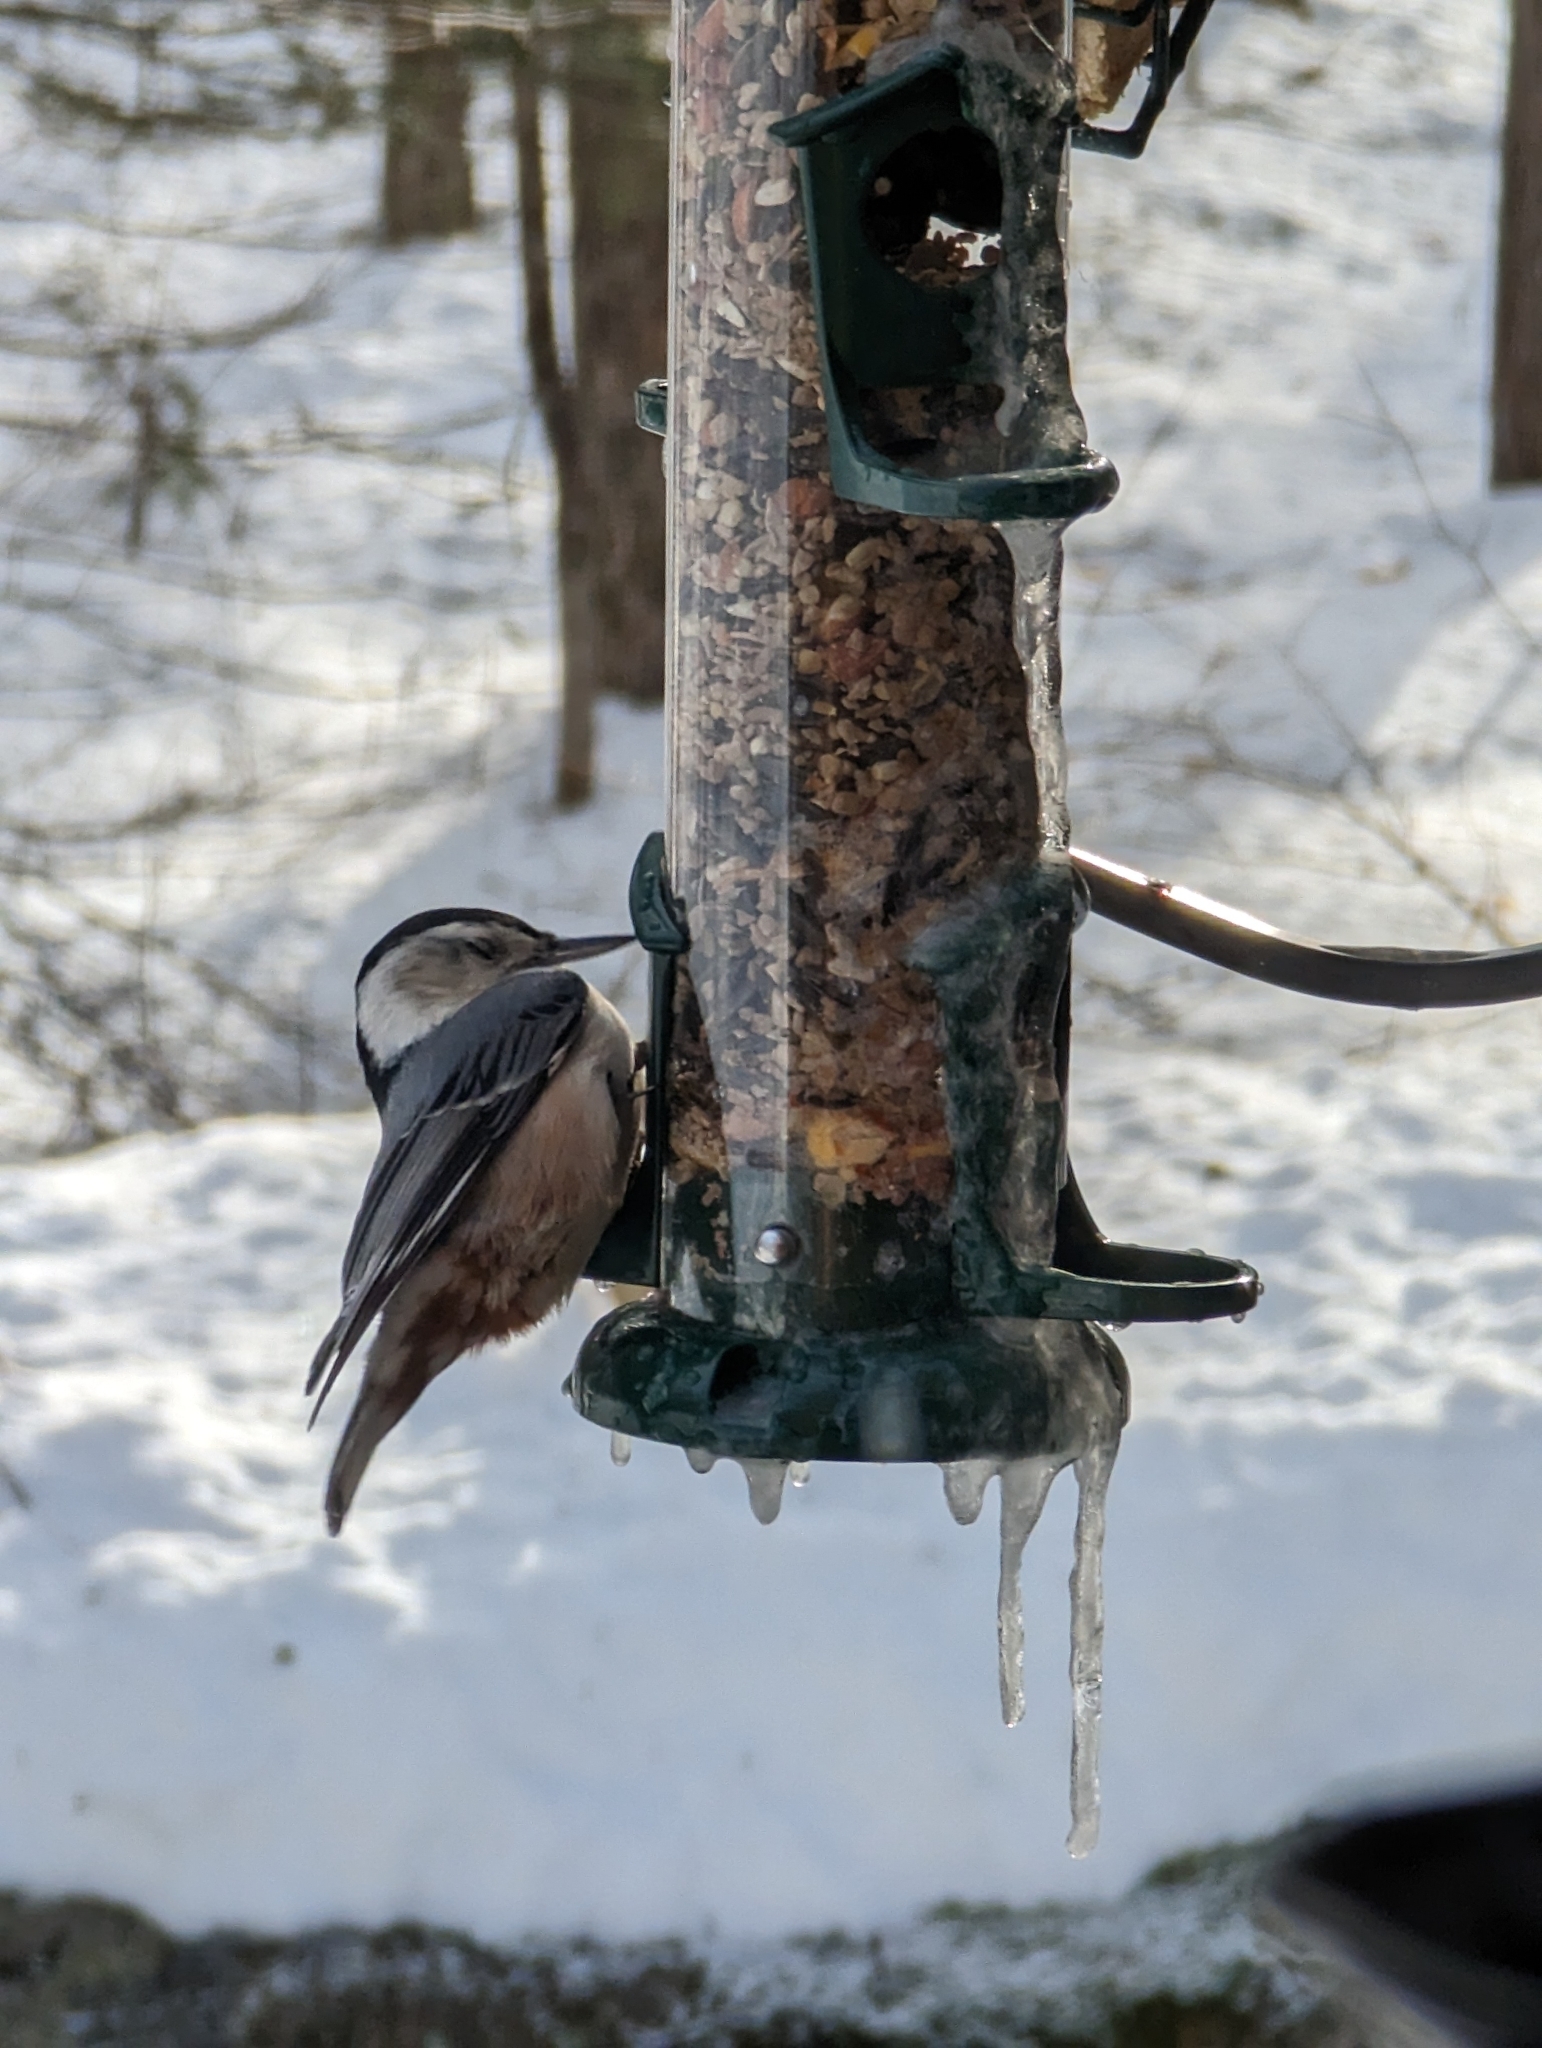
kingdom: Animalia
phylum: Chordata
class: Aves
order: Passeriformes
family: Sittidae
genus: Sitta
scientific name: Sitta carolinensis
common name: White-breasted nuthatch
